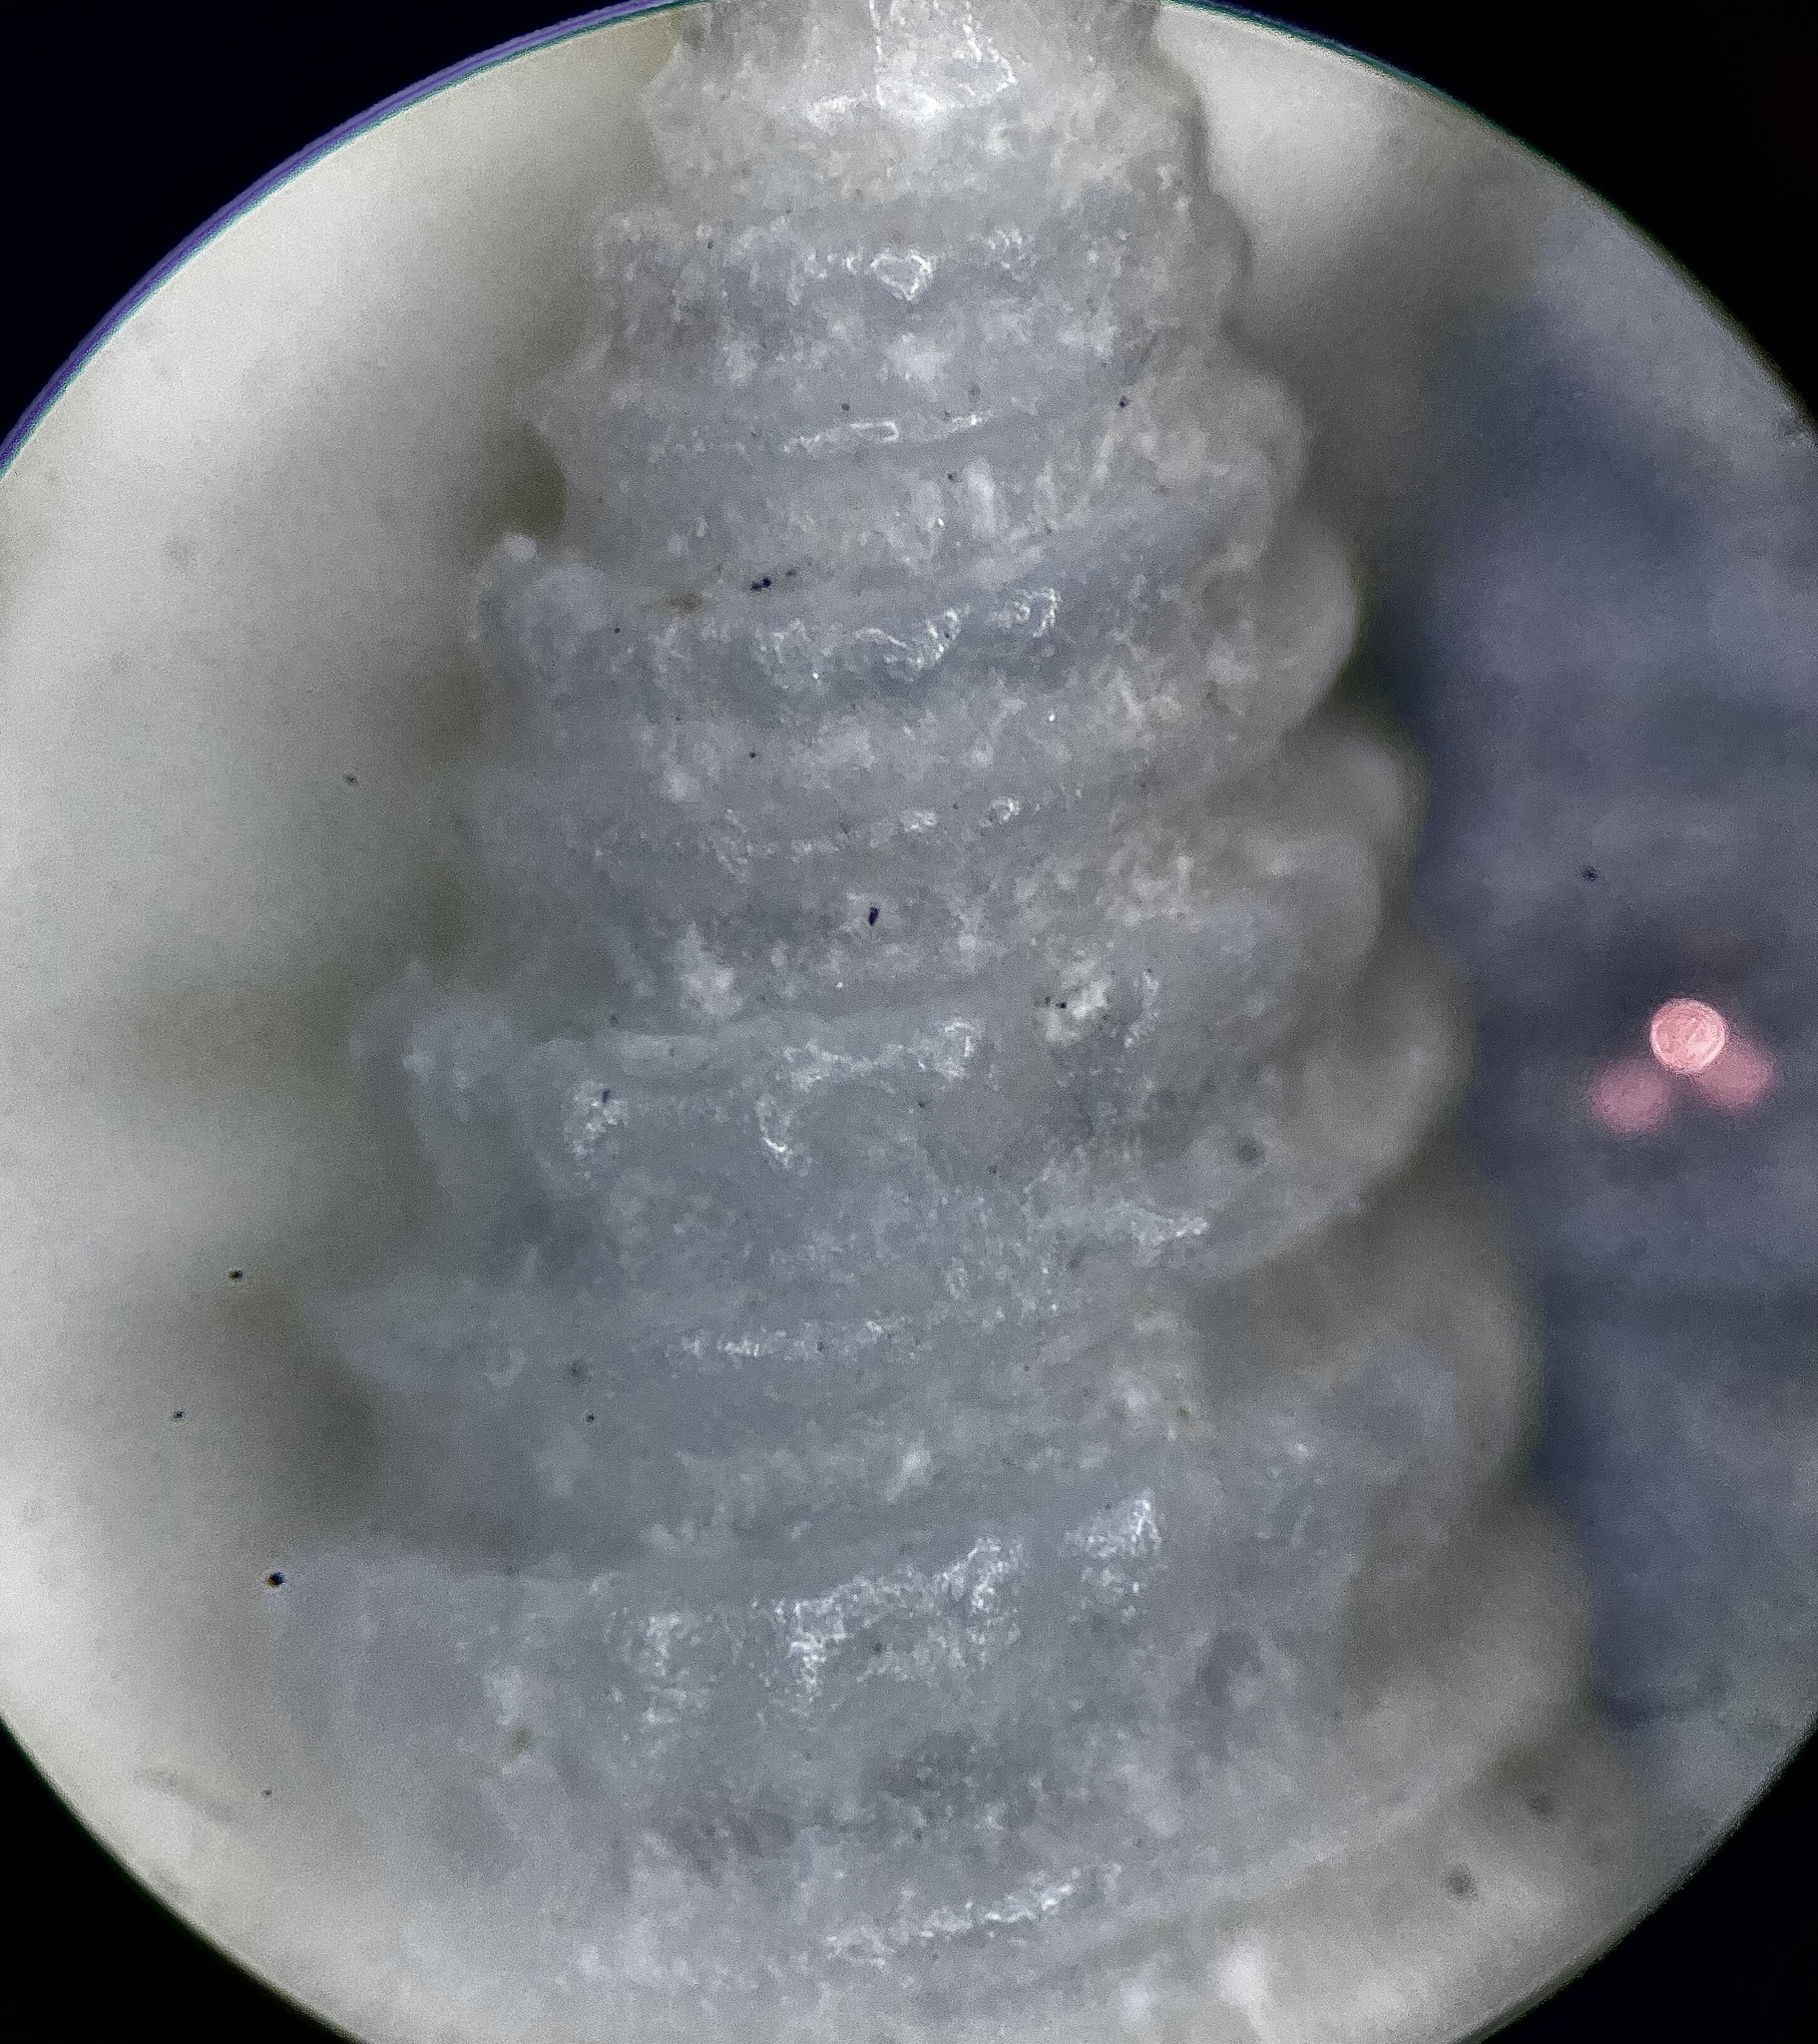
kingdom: Animalia
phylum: Mollusca
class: Gastropoda
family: Pyramidellidae
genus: Triptychus
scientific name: Triptychus niveus
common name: Three-corded pyram
